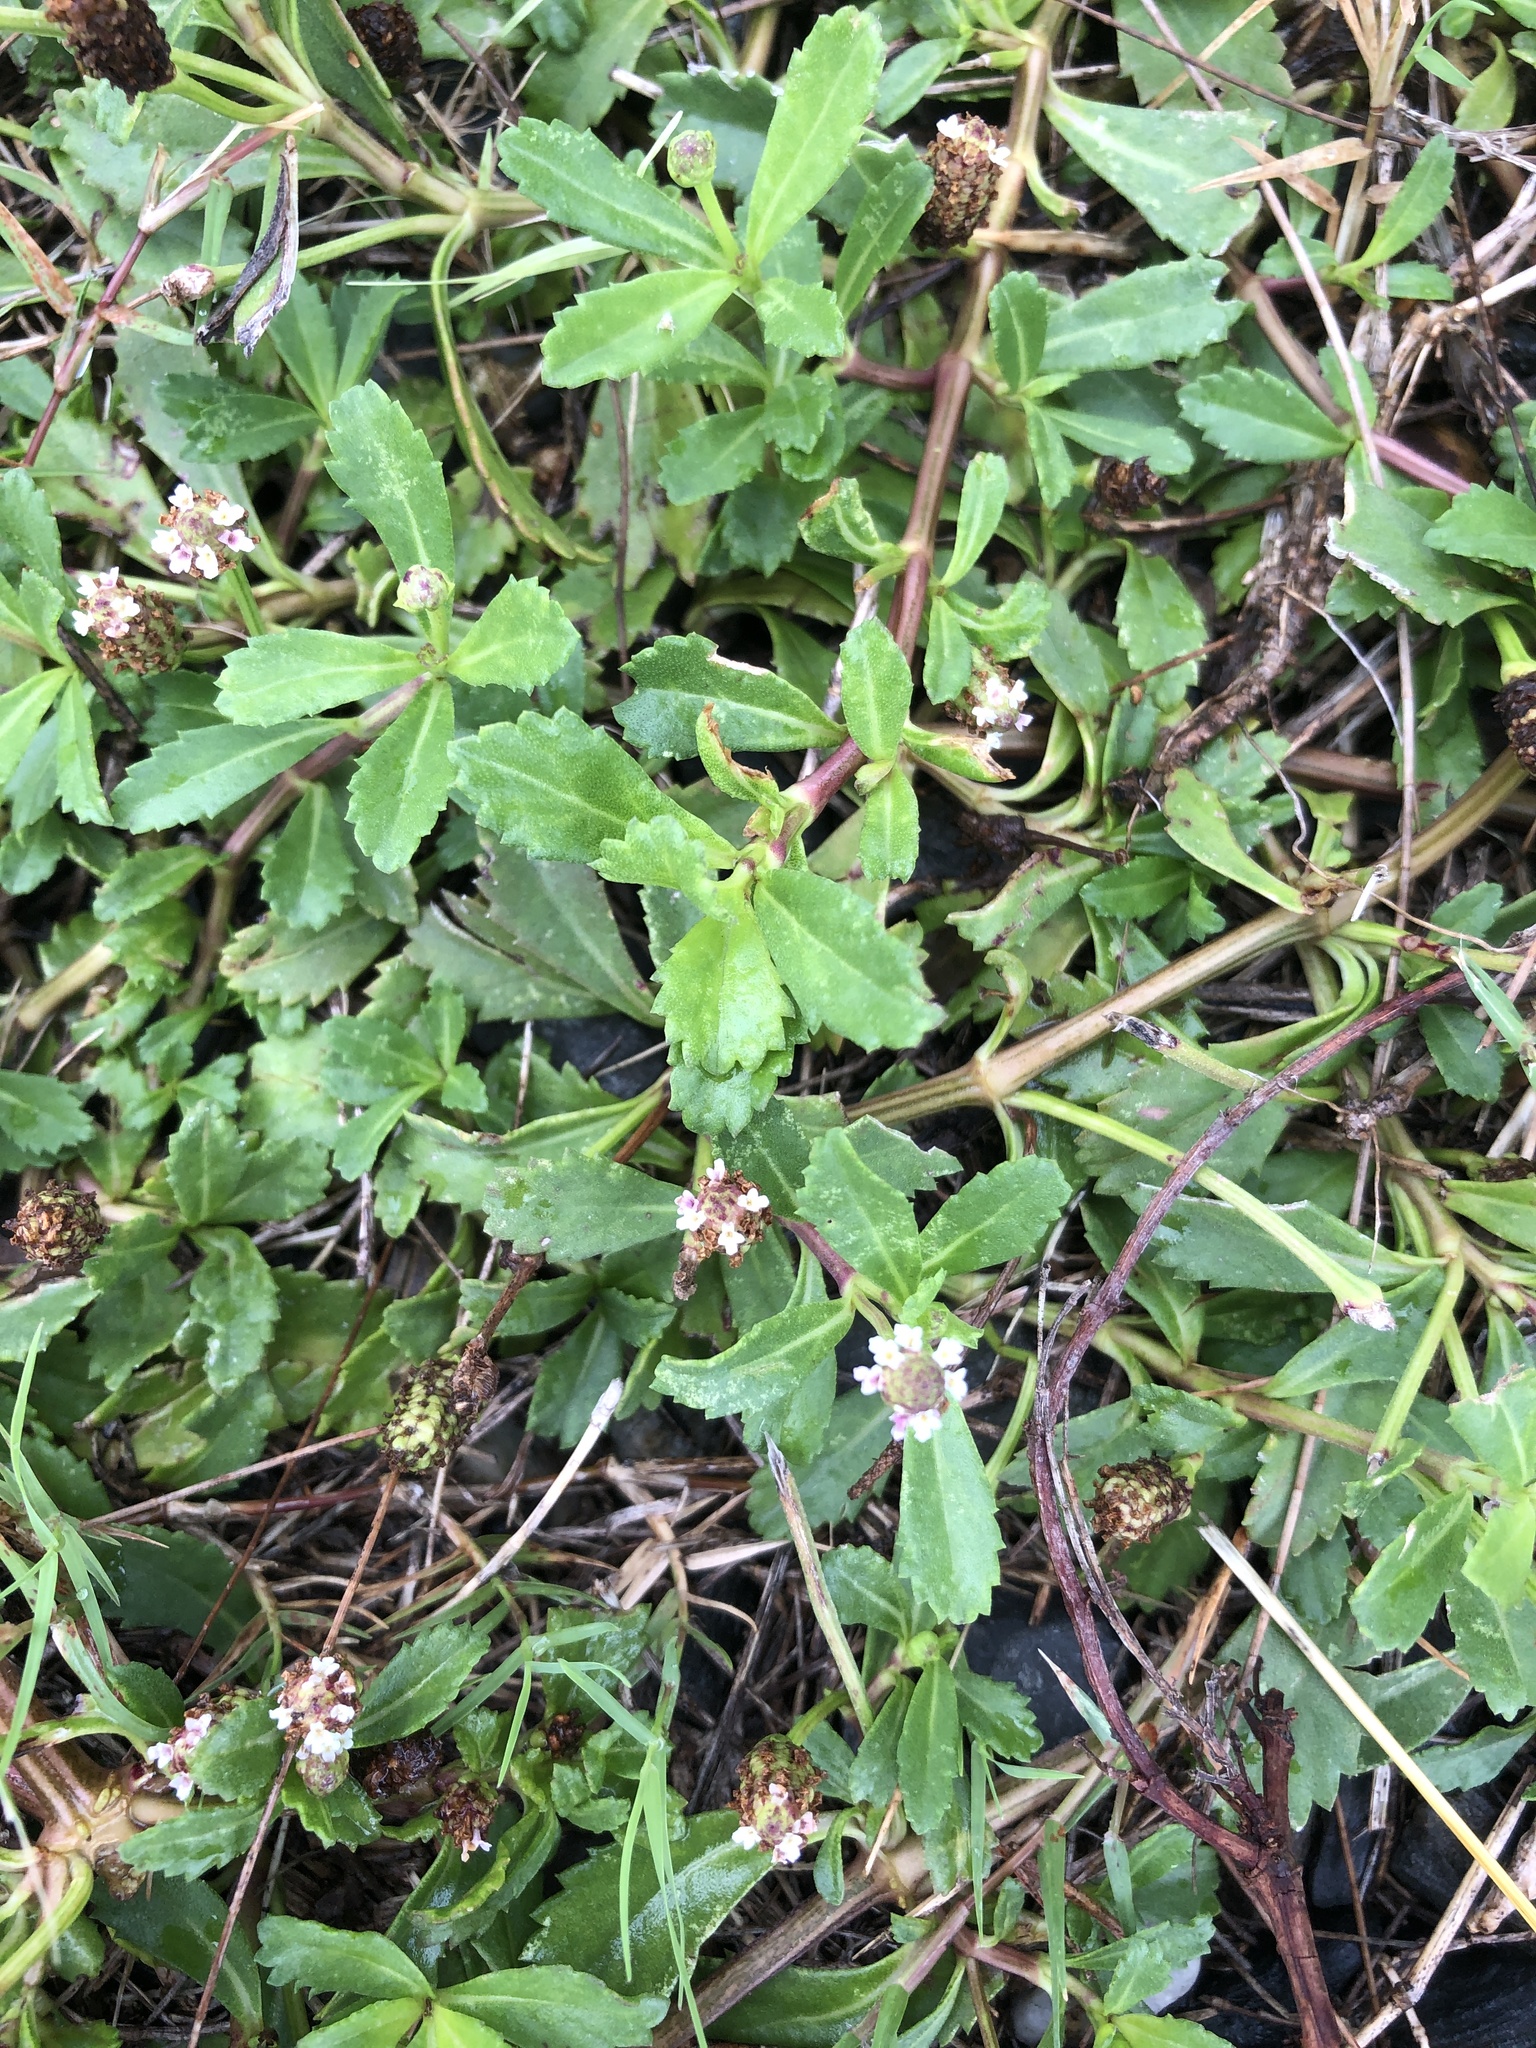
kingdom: Plantae
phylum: Tracheophyta
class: Magnoliopsida
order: Lamiales
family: Verbenaceae
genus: Phyla
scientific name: Phyla nodiflora
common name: Frogfruit
